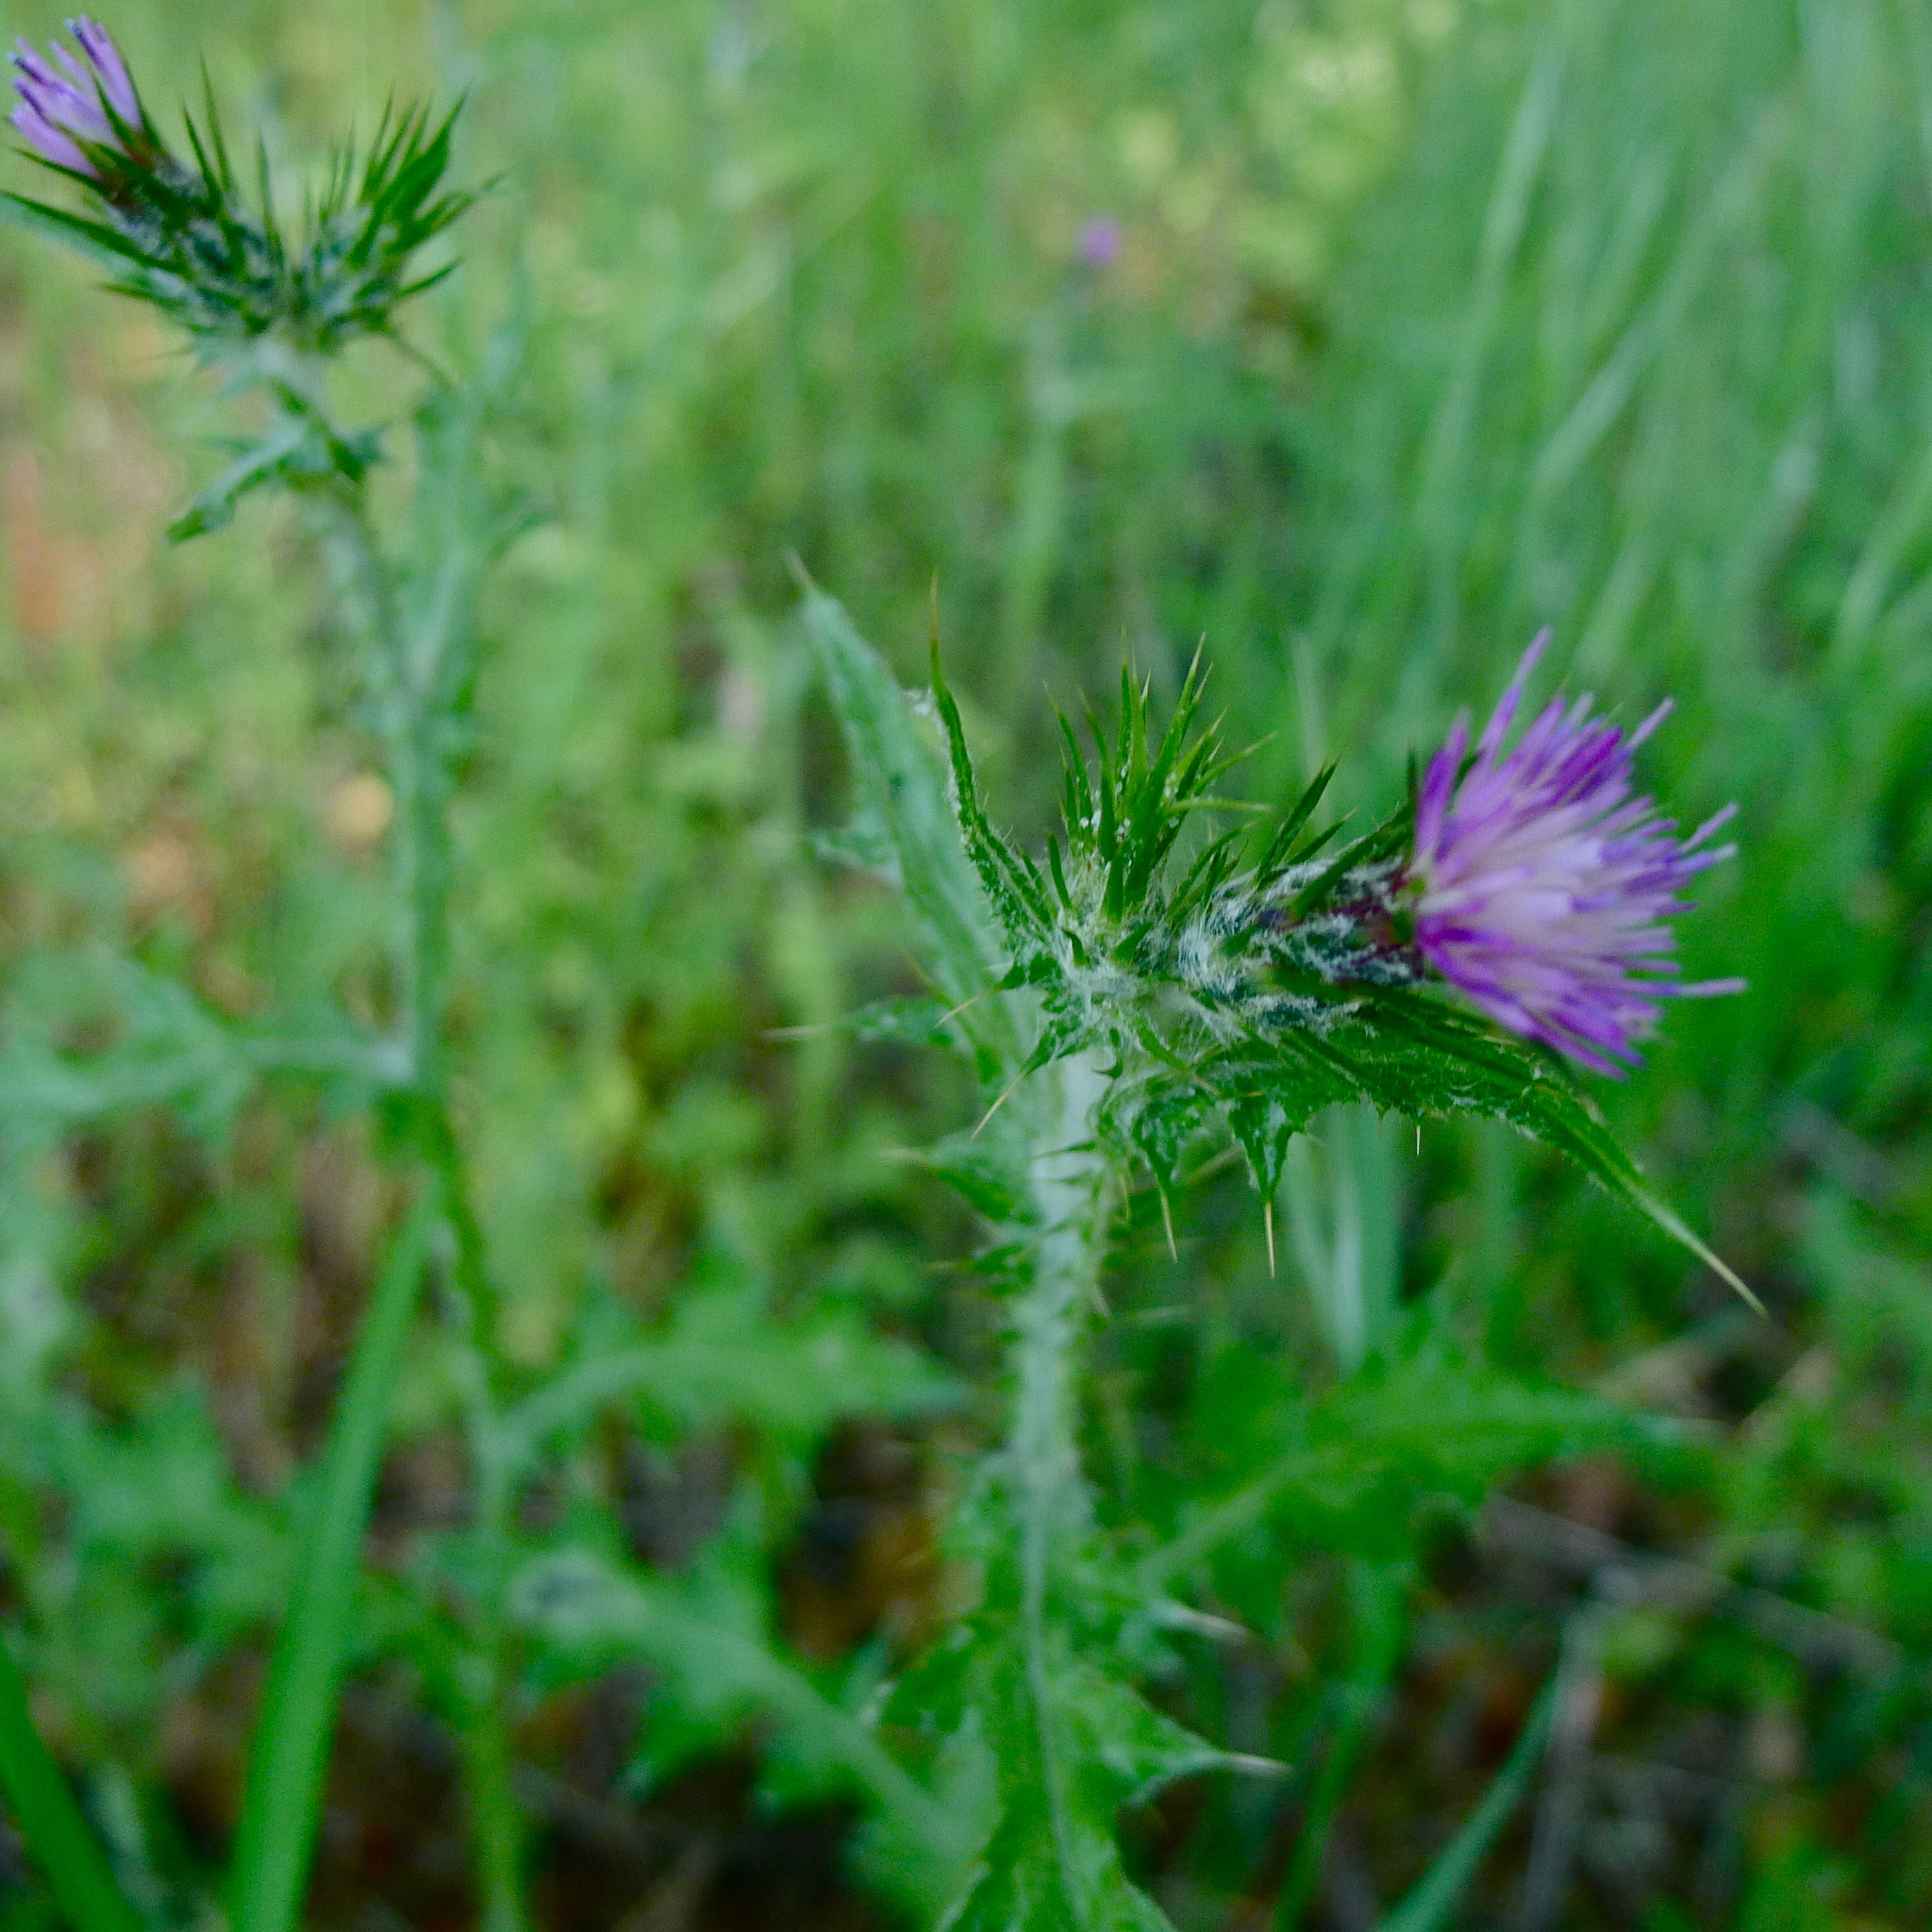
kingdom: Plantae
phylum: Tracheophyta
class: Magnoliopsida
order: Asterales
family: Asteraceae
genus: Carduus
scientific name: Carduus pycnocephalus
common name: Plymouth thistle
